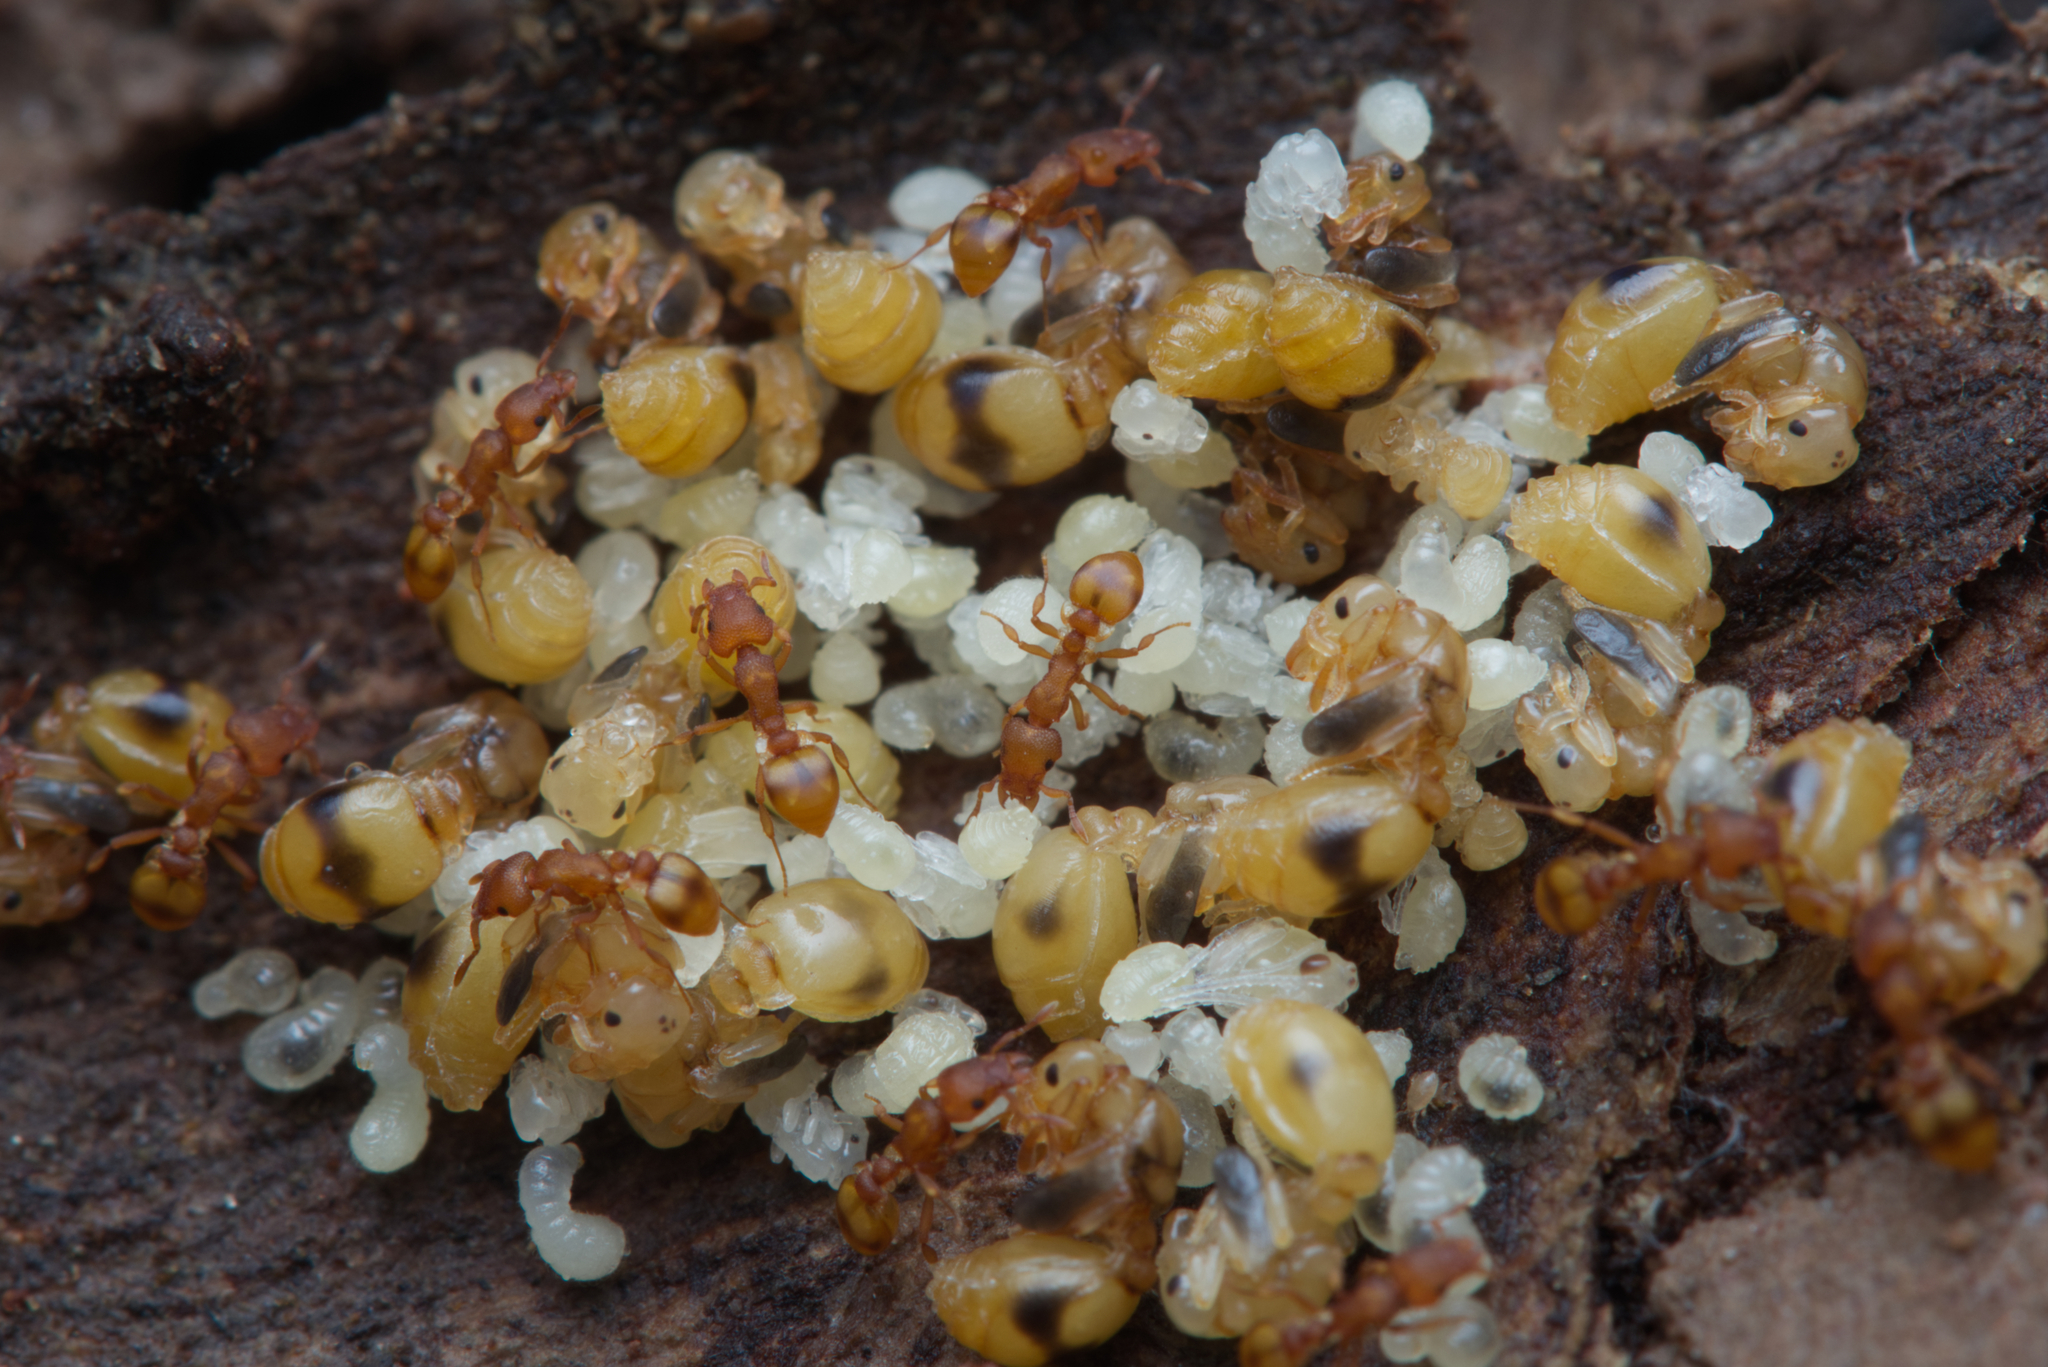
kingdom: Animalia
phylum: Arthropoda
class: Insecta
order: Hymenoptera
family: Formicidae
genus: Colobostruma
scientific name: Colobostruma
